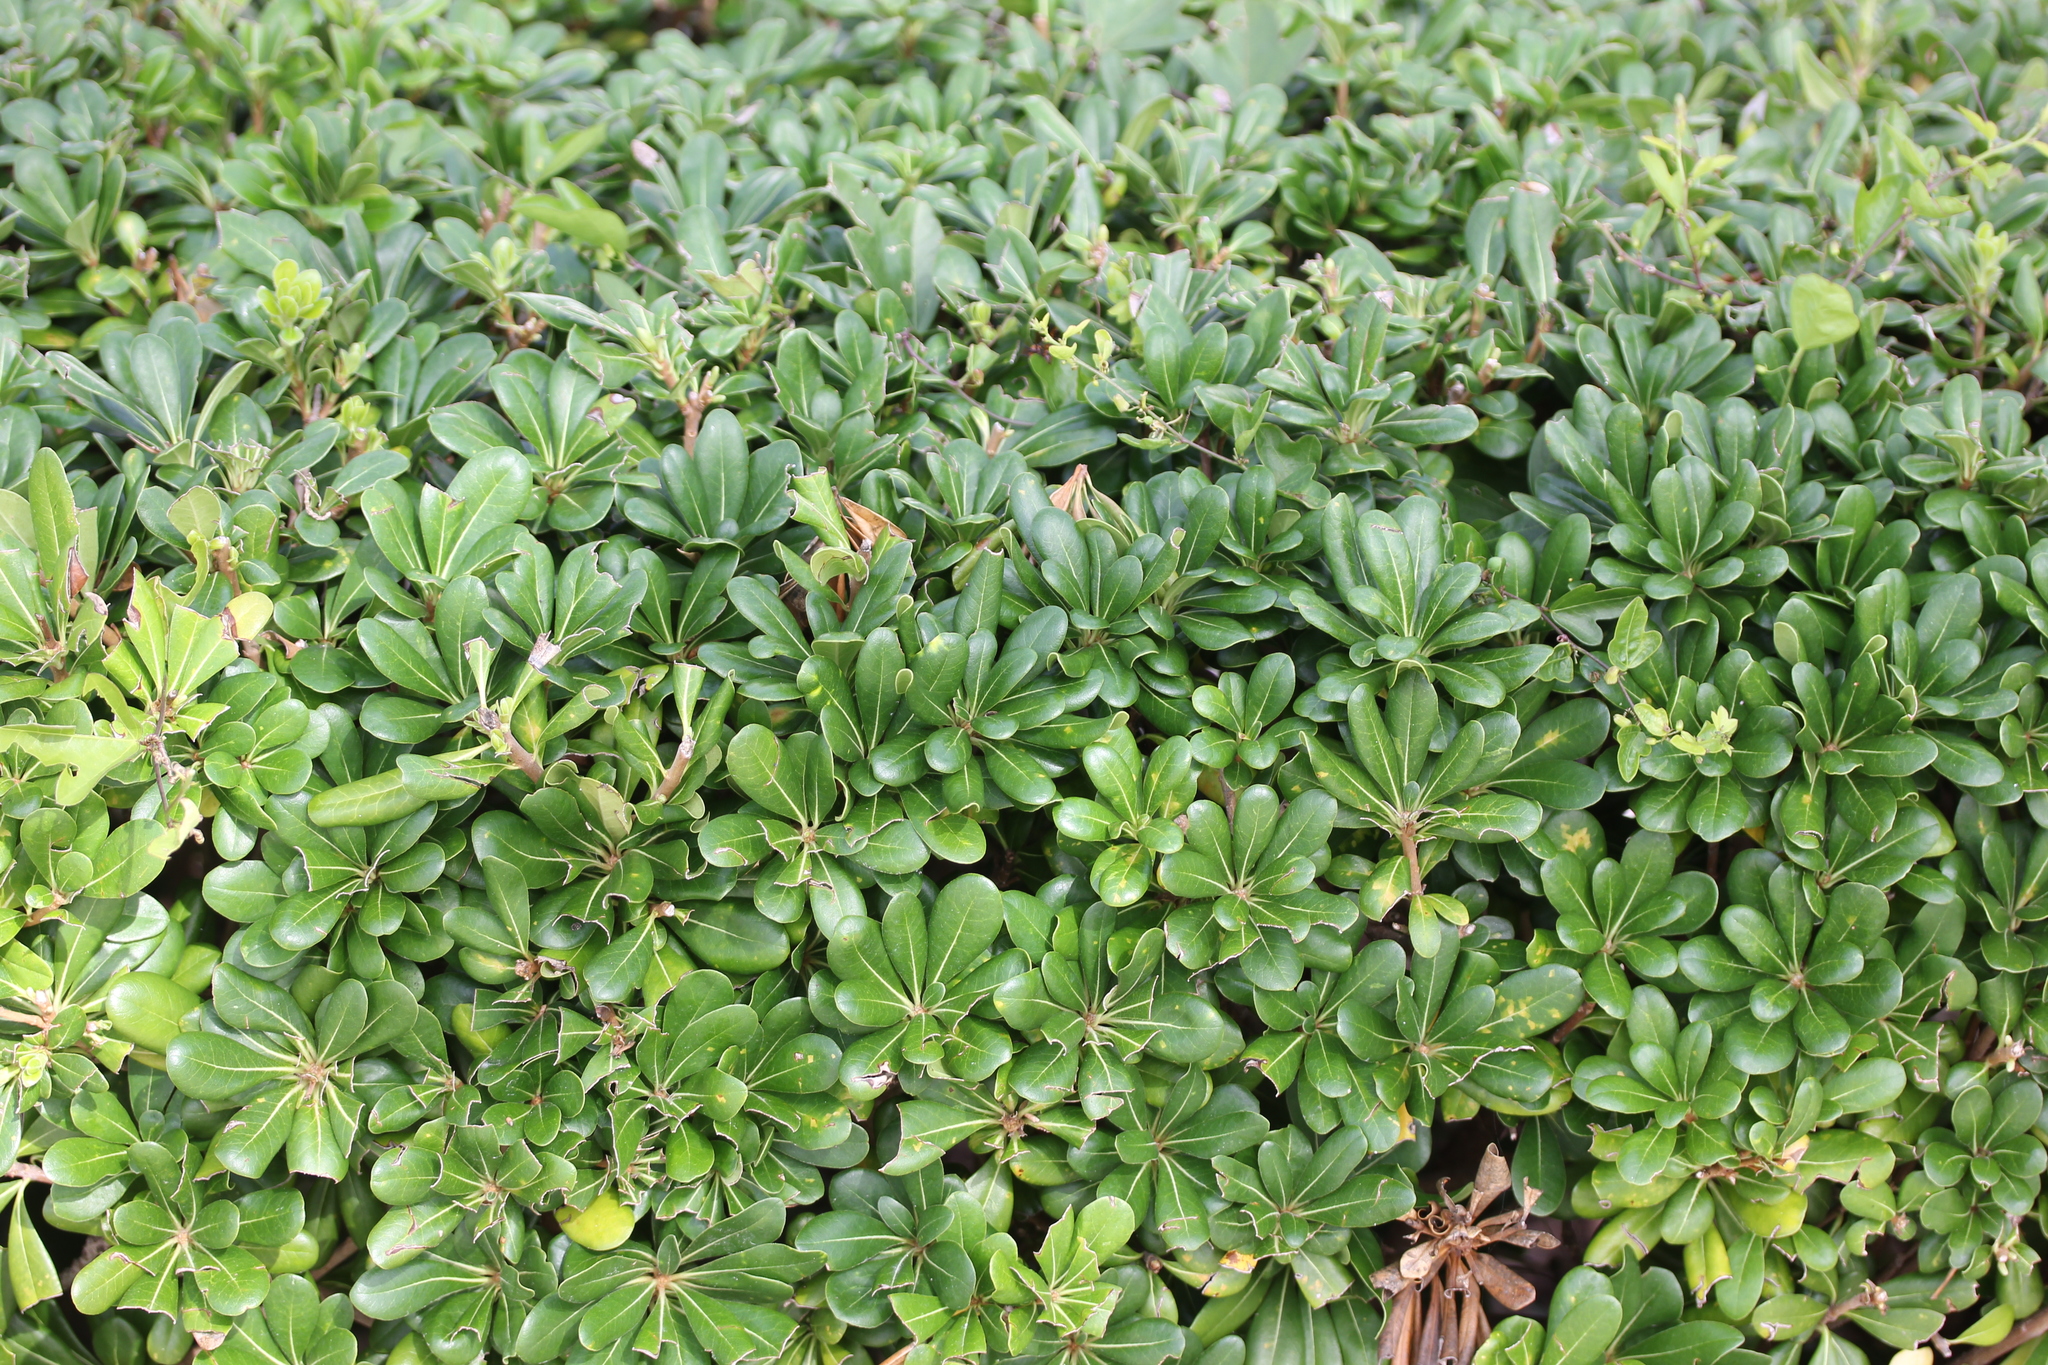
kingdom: Plantae
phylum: Tracheophyta
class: Magnoliopsida
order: Apiales
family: Pittosporaceae
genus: Pittosporum
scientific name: Pittosporum tobira
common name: Japanese cheesewood
